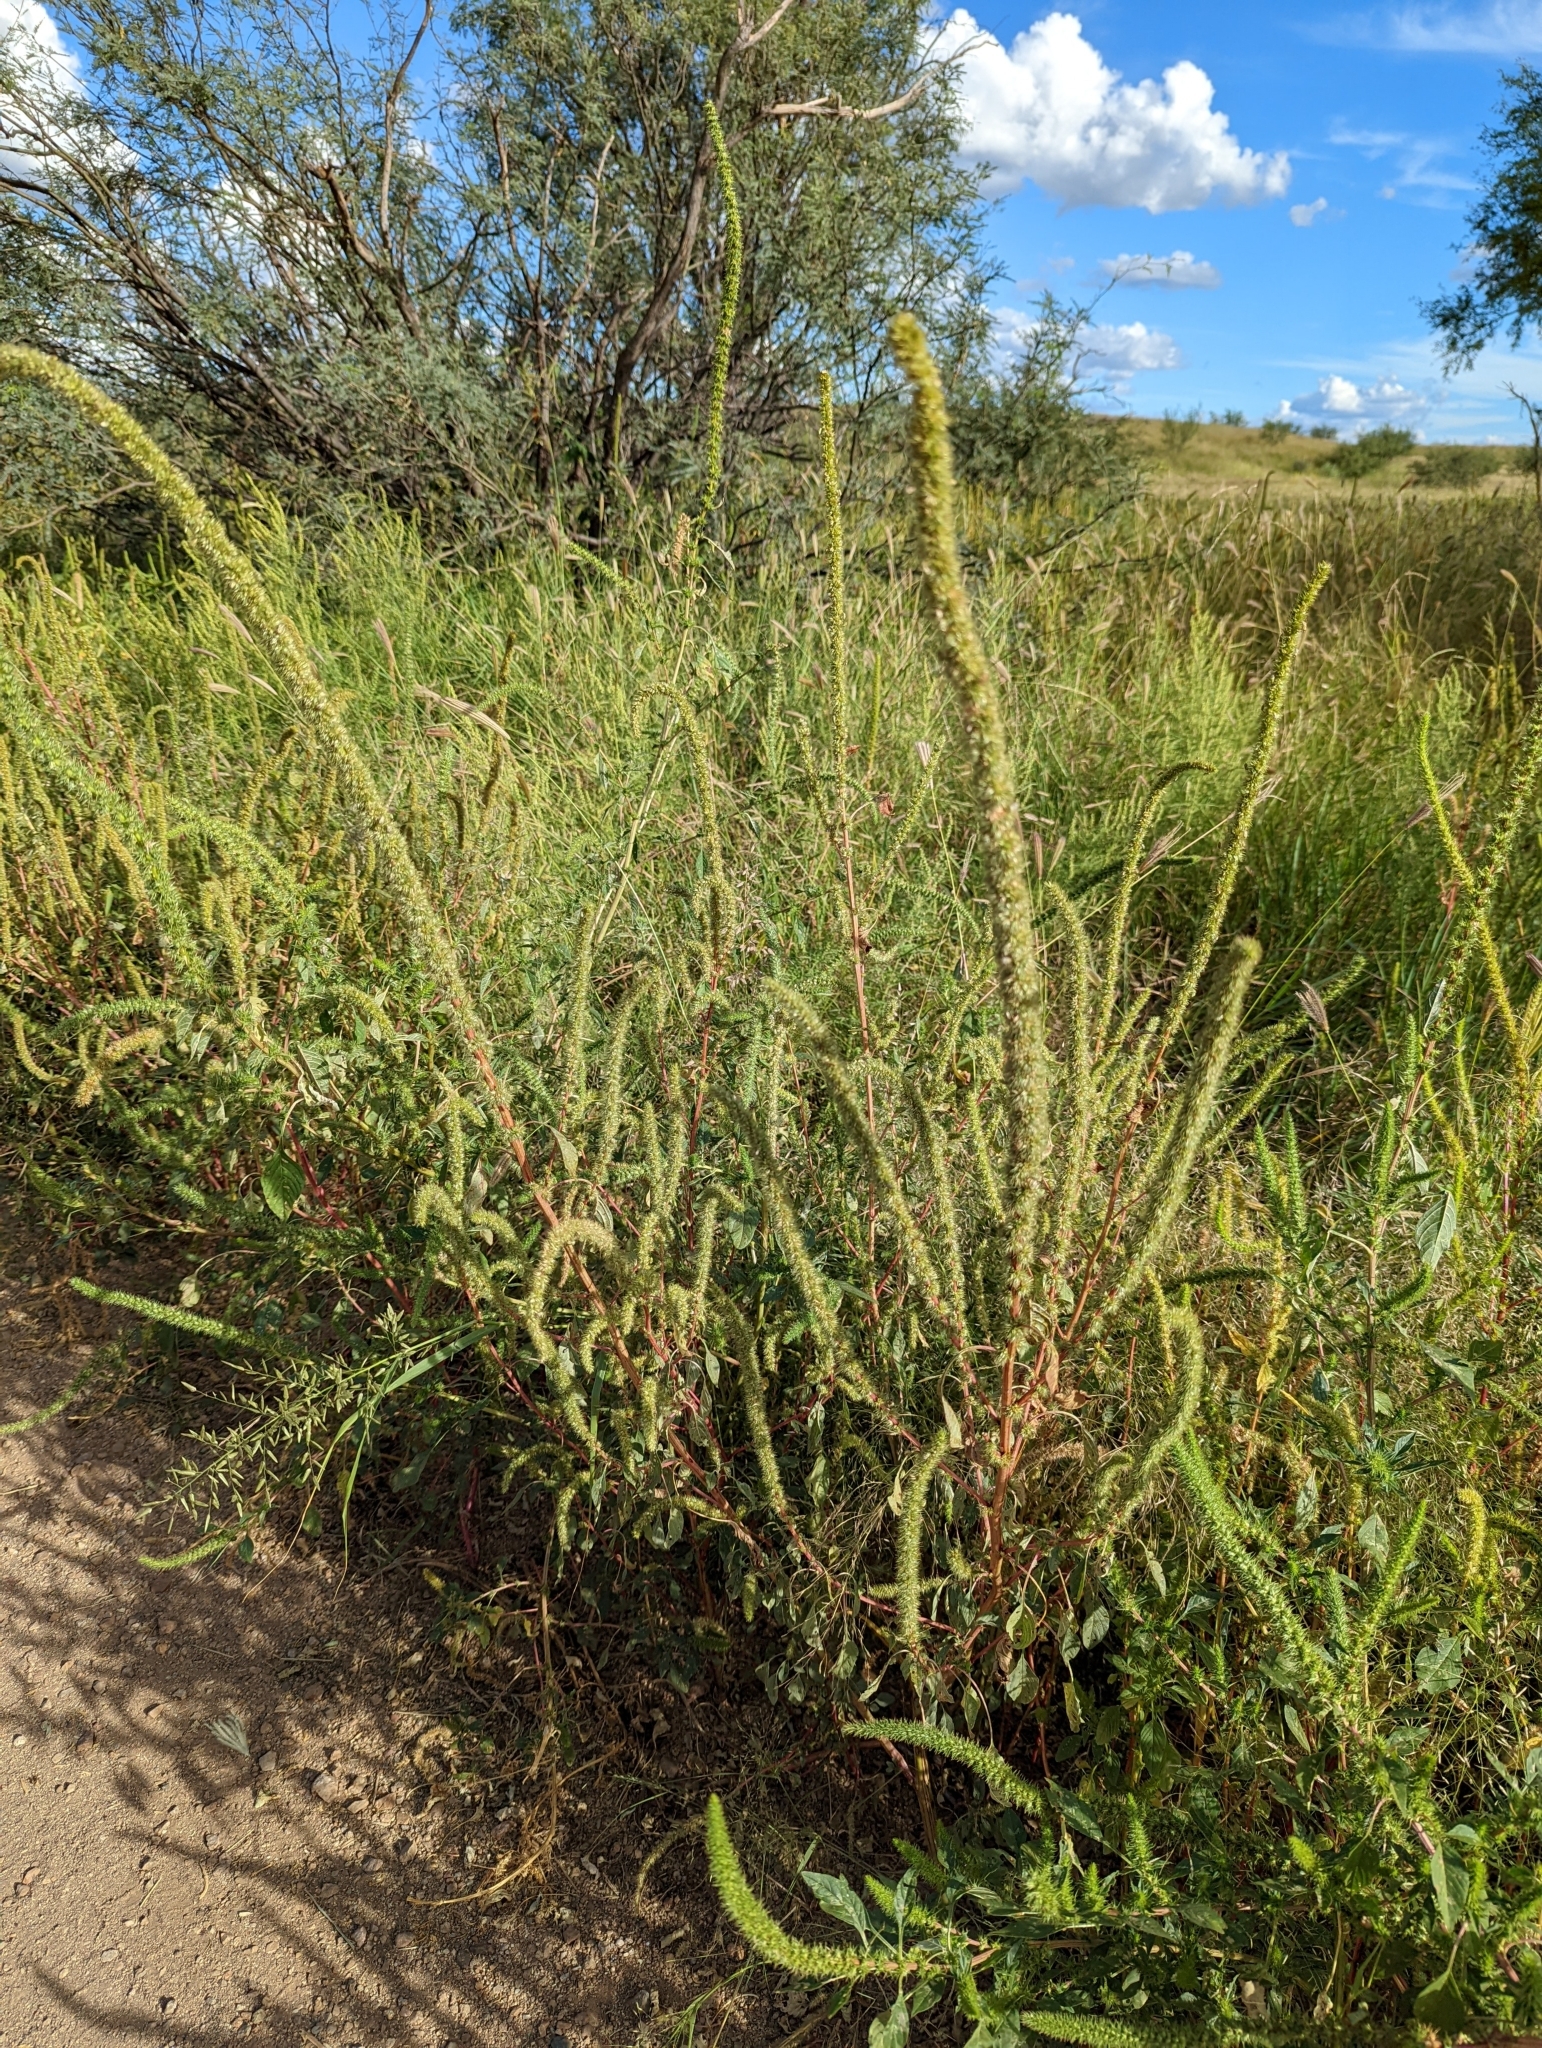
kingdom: Plantae
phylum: Tracheophyta
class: Magnoliopsida
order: Caryophyllales
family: Amaranthaceae
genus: Amaranthus
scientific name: Amaranthus palmeri
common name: Dioecious amaranth
